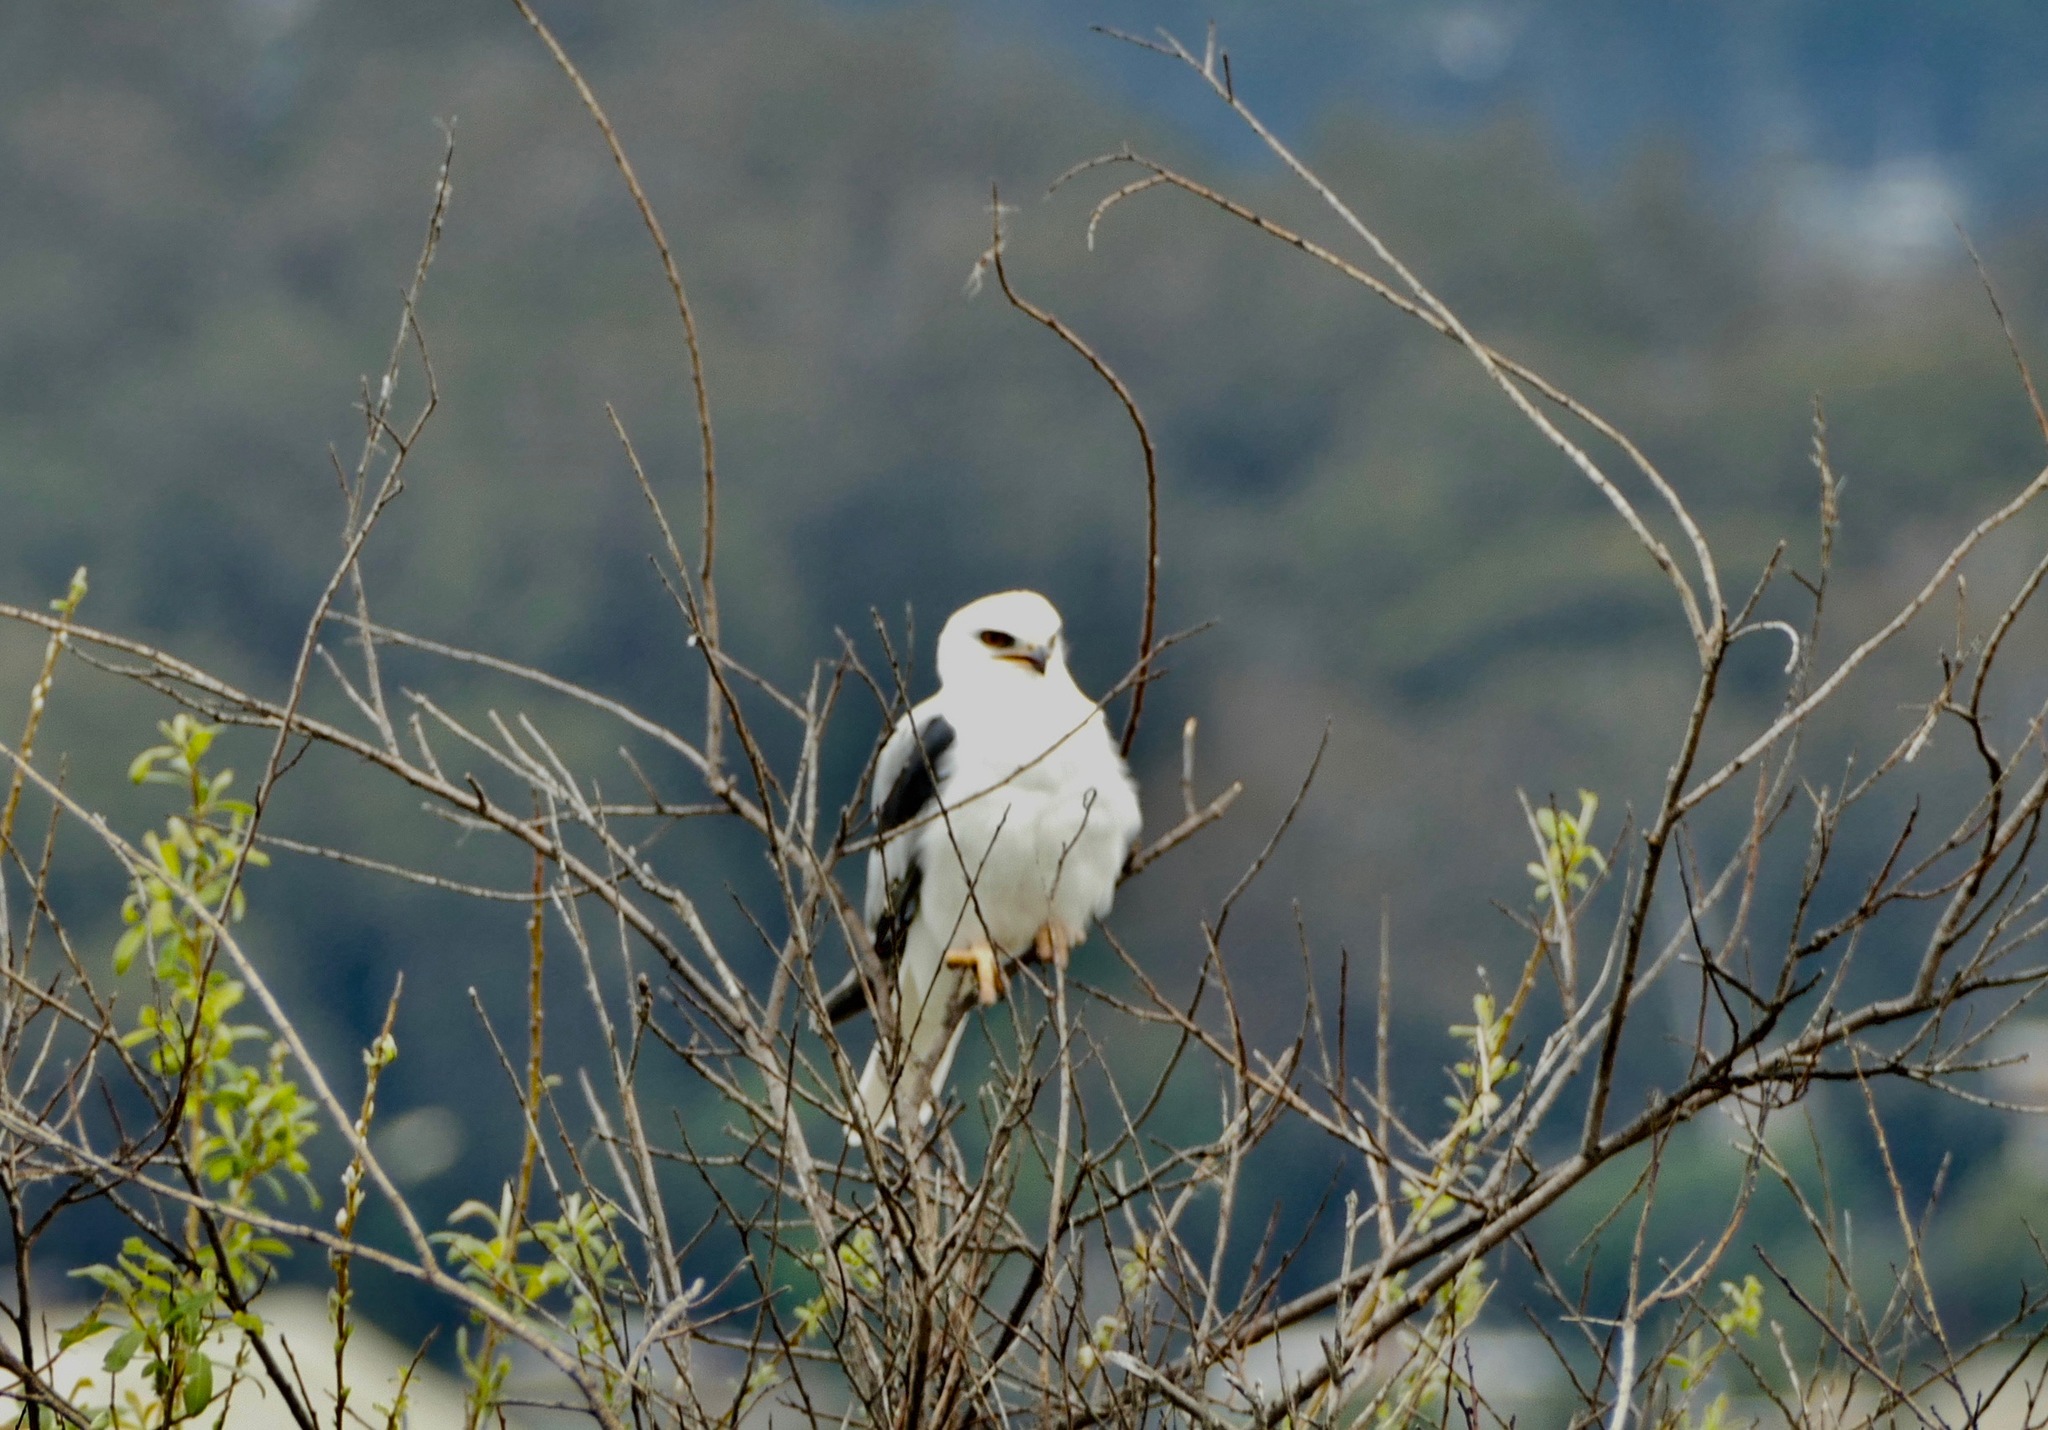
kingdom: Animalia
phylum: Chordata
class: Aves
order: Accipitriformes
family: Accipitridae
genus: Elanus
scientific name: Elanus leucurus
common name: White-tailed kite
